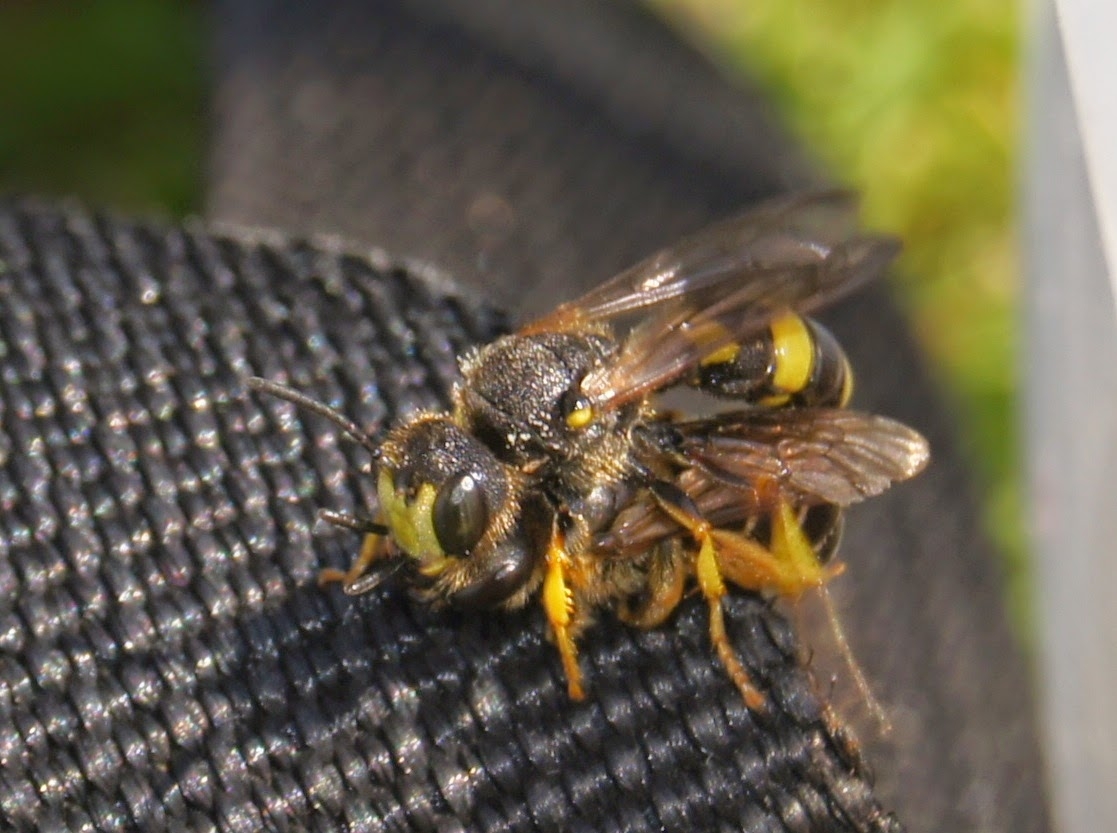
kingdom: Animalia
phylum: Arthropoda
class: Insecta
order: Hymenoptera
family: Crabronidae
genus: Cerceris
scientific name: Cerceris rybyensis
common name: Ornate tailed digger wasp
